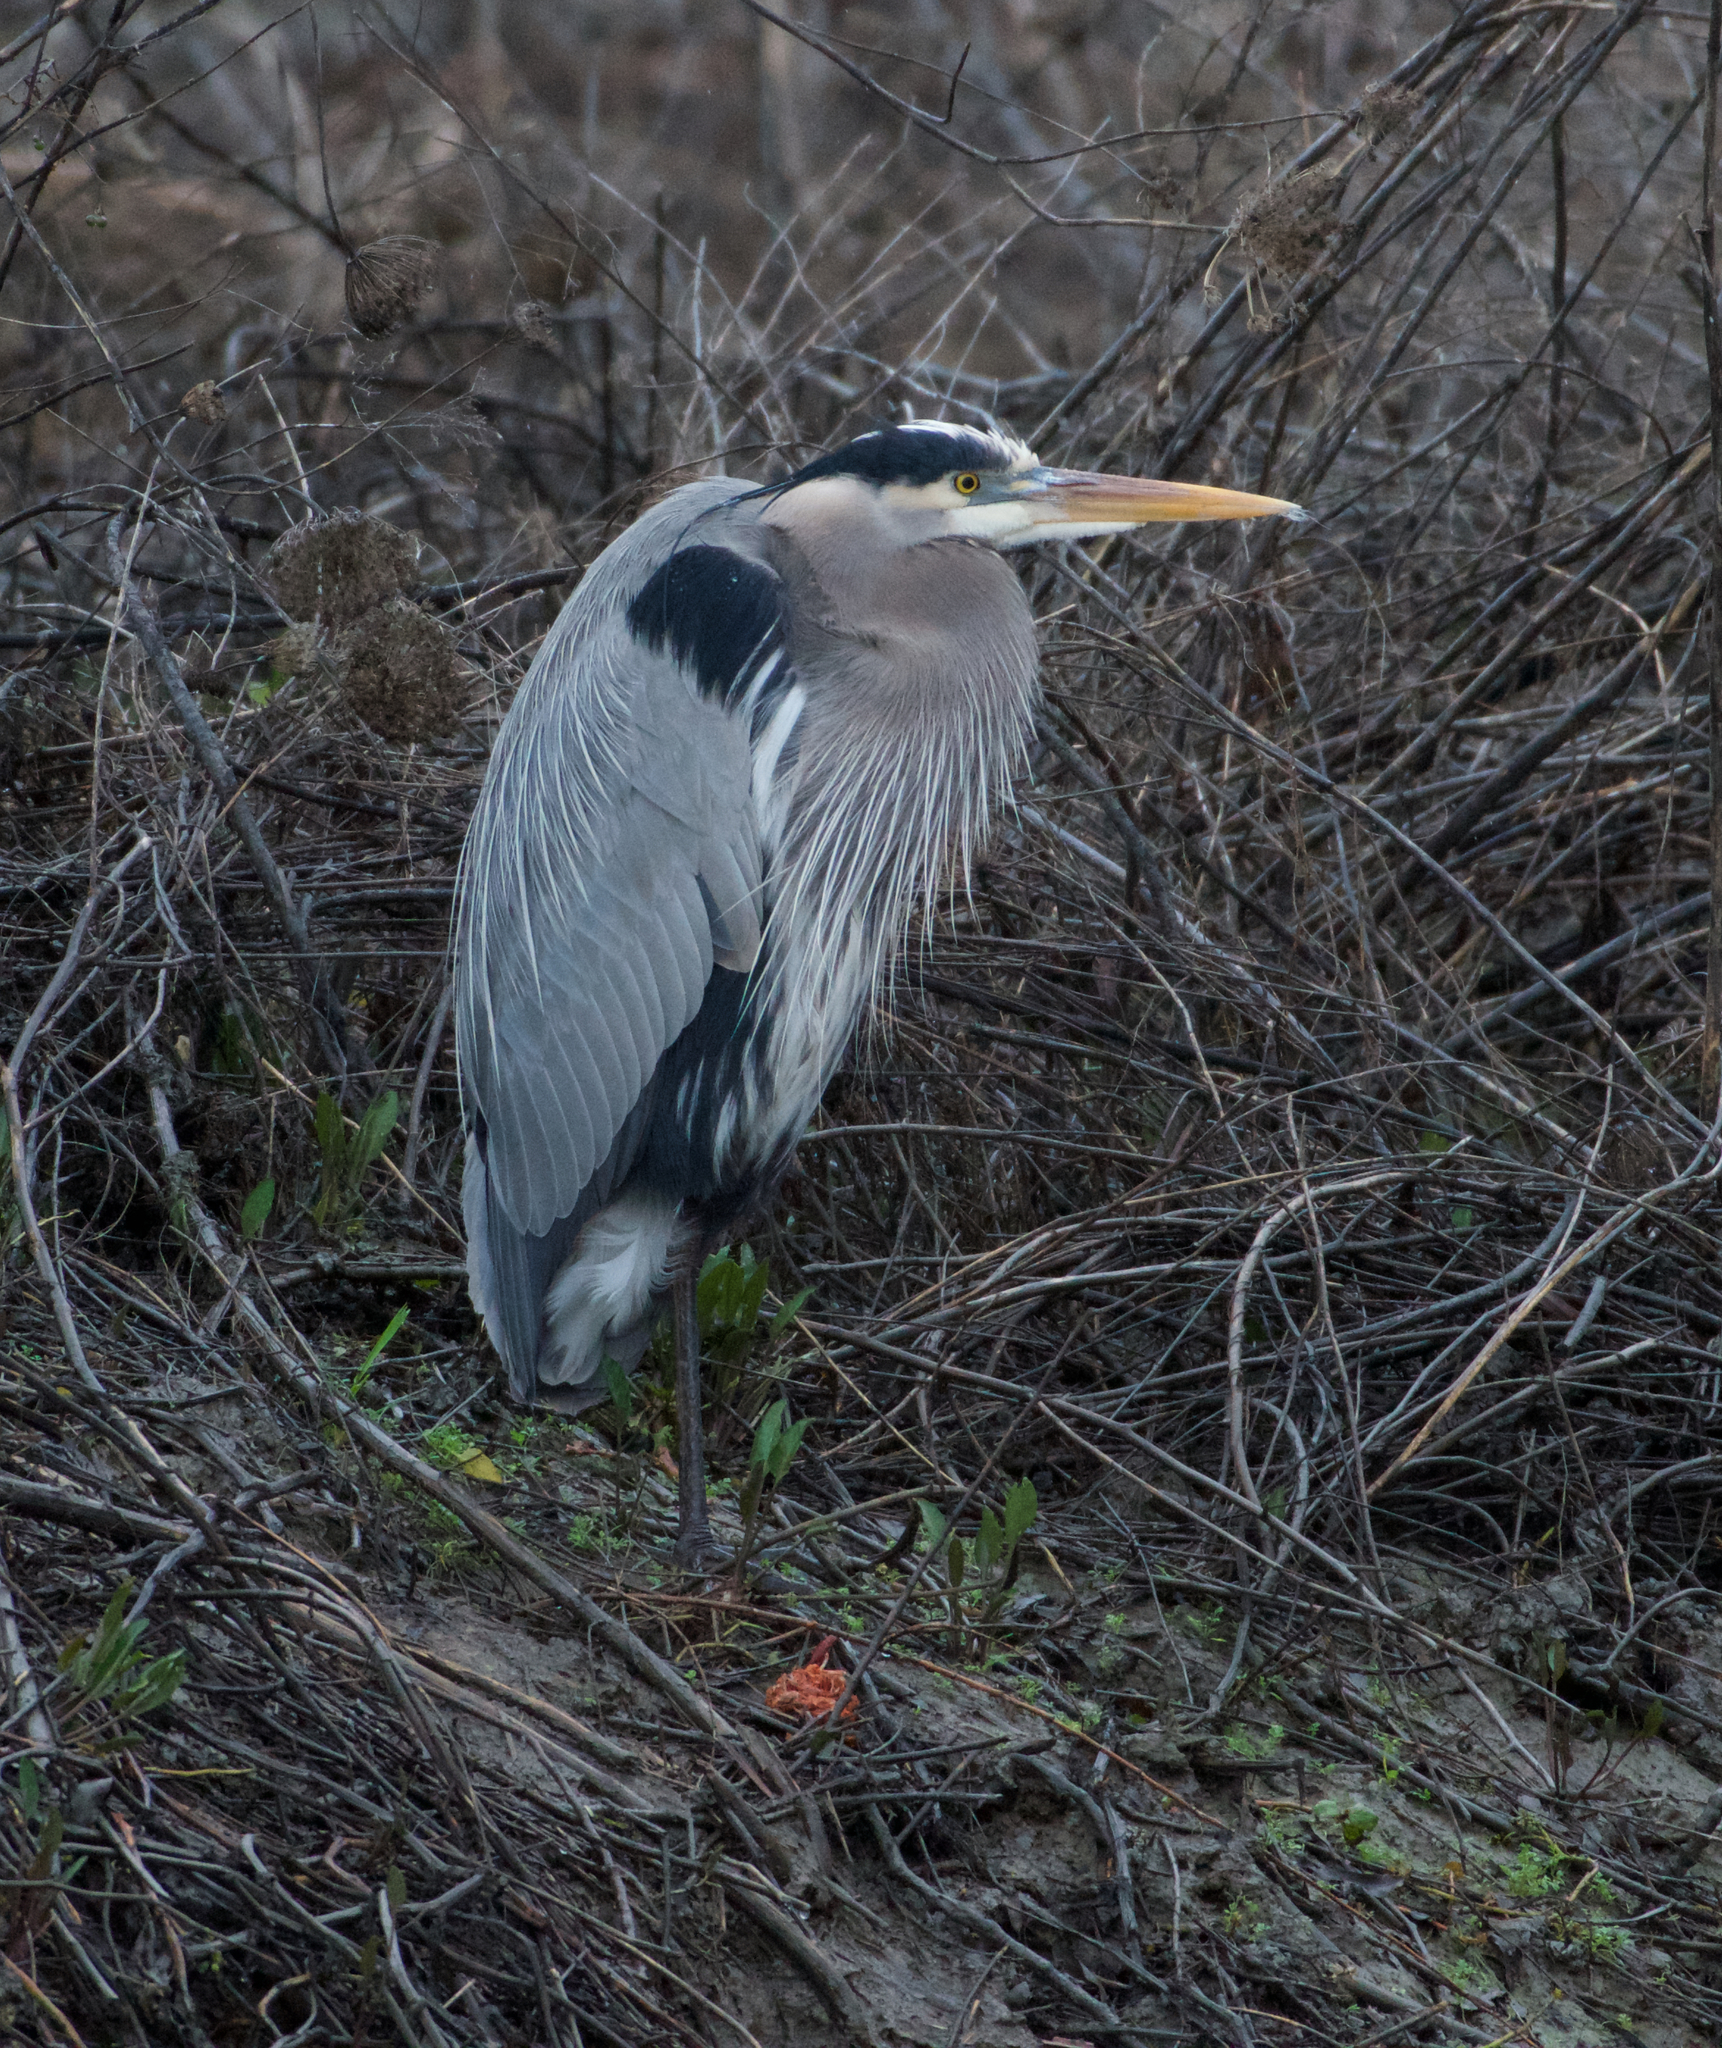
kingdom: Animalia
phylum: Chordata
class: Aves
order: Pelecaniformes
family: Ardeidae
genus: Ardea
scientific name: Ardea herodias
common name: Great blue heron
